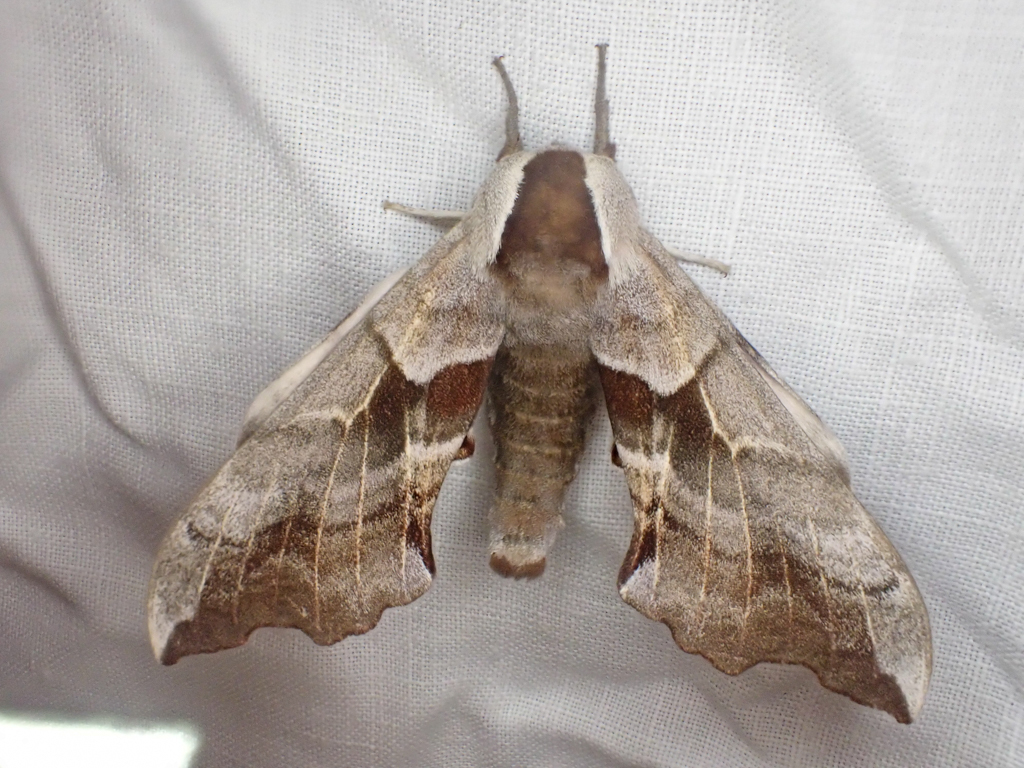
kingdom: Animalia
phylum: Arthropoda
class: Insecta
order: Lepidoptera
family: Sphingidae
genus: Smerinthus
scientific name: Smerinthus cerisyi
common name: Cerisy's sphinx moth
